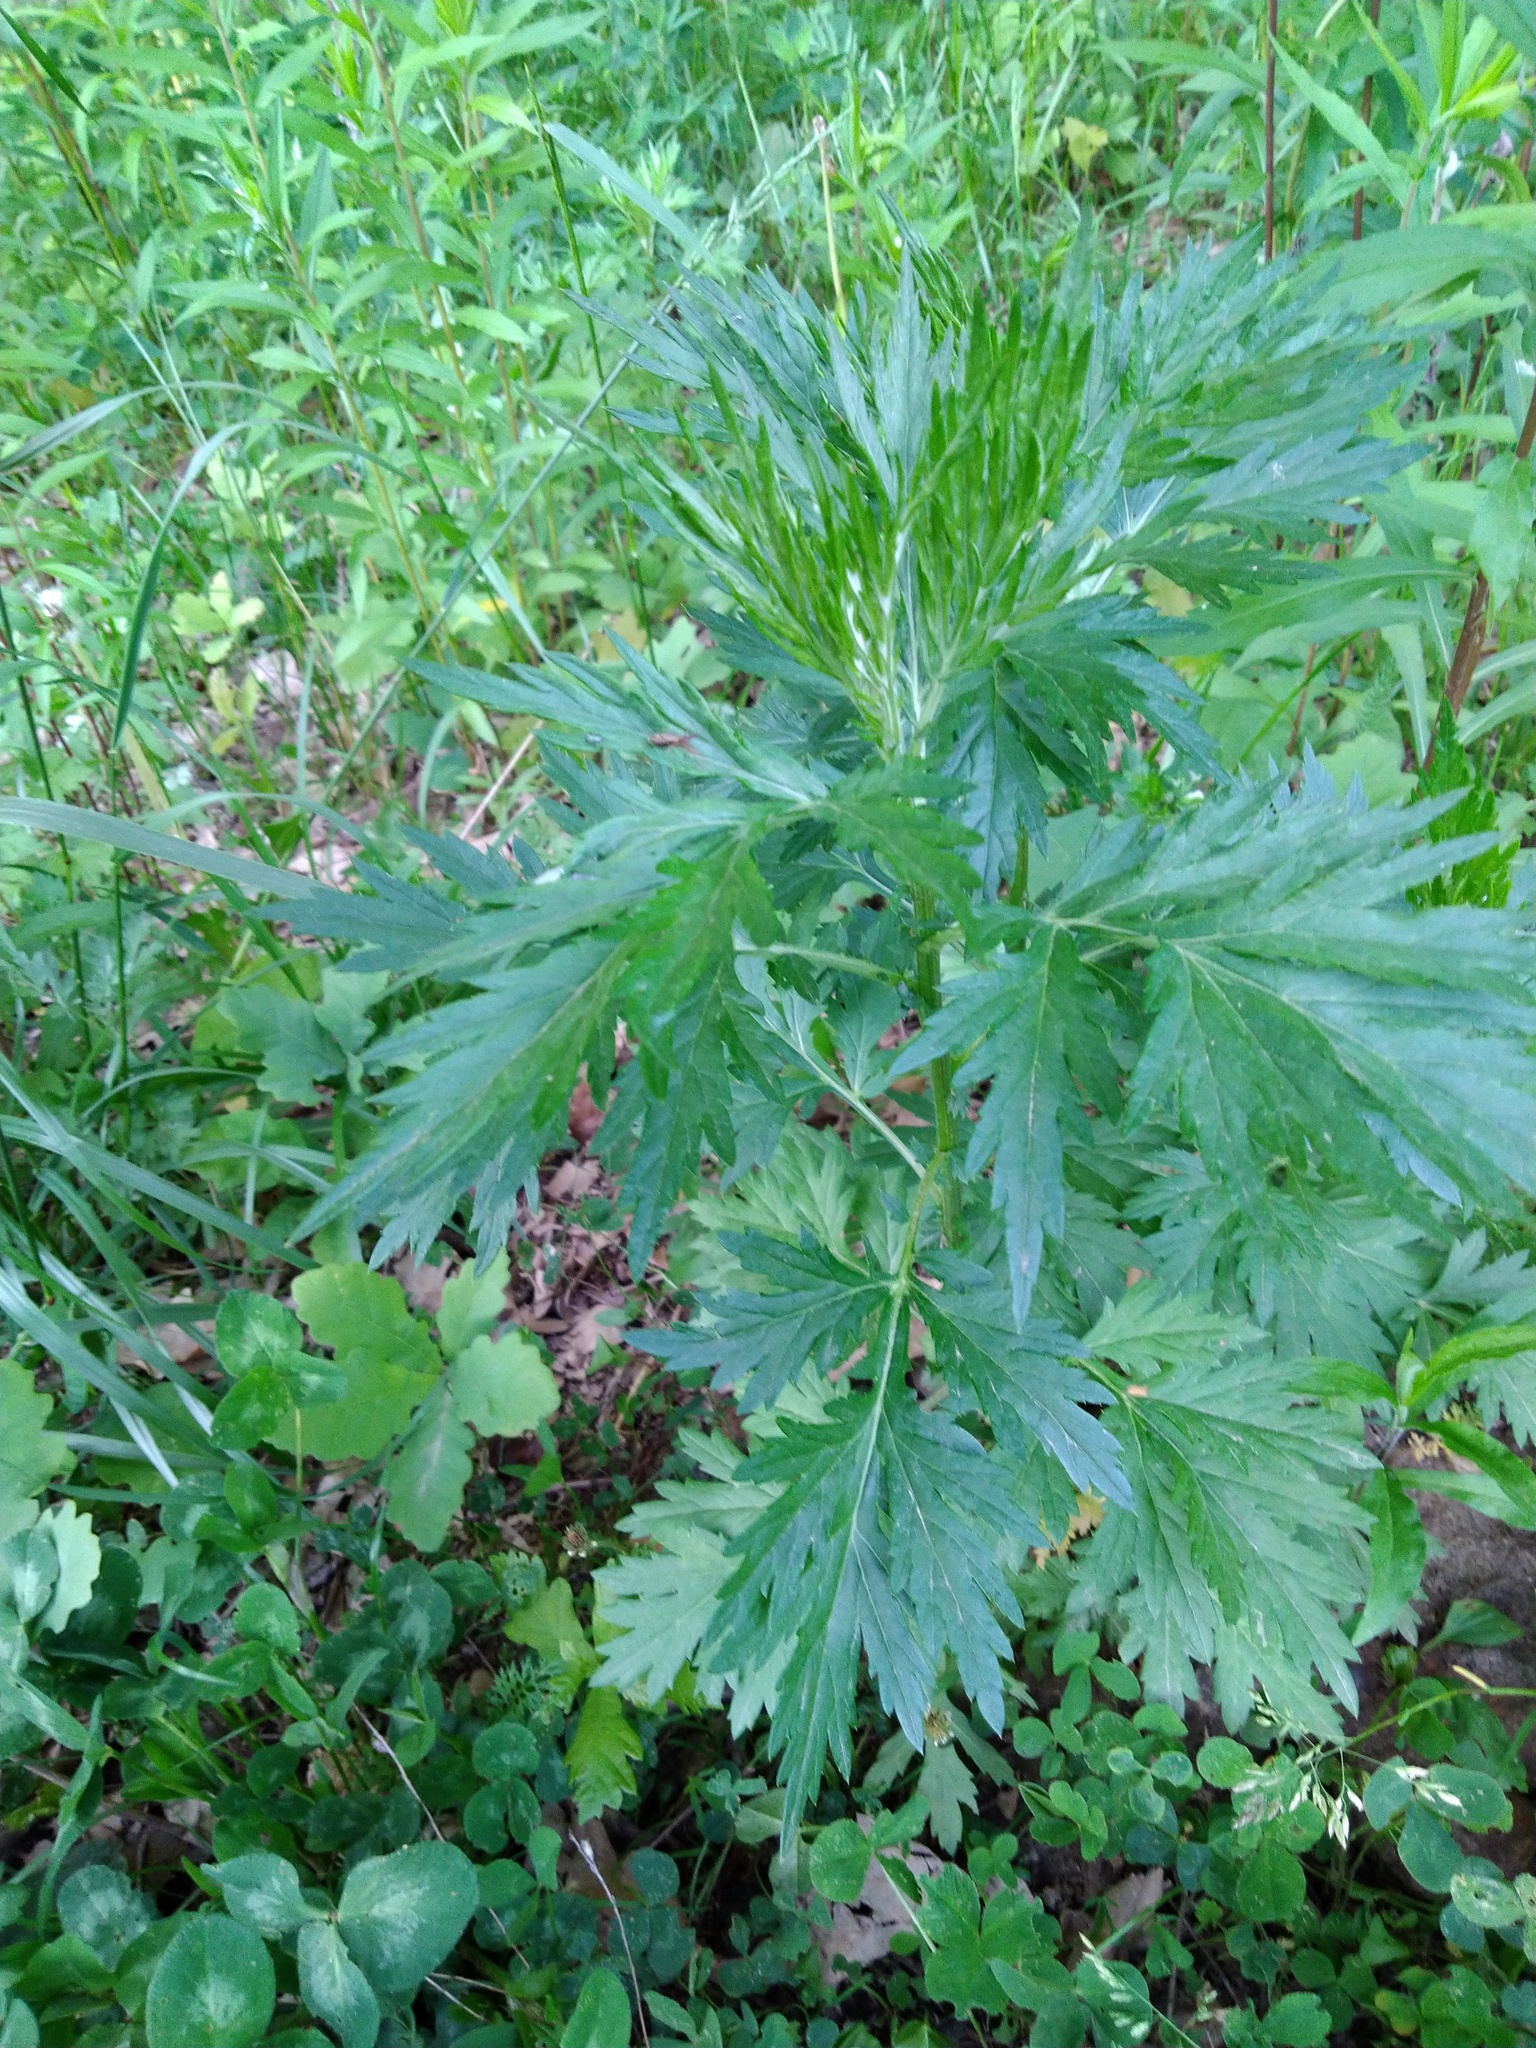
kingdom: Plantae
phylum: Tracheophyta
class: Magnoliopsida
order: Asterales
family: Asteraceae
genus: Artemisia
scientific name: Artemisia vulgaris
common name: Mugwort
